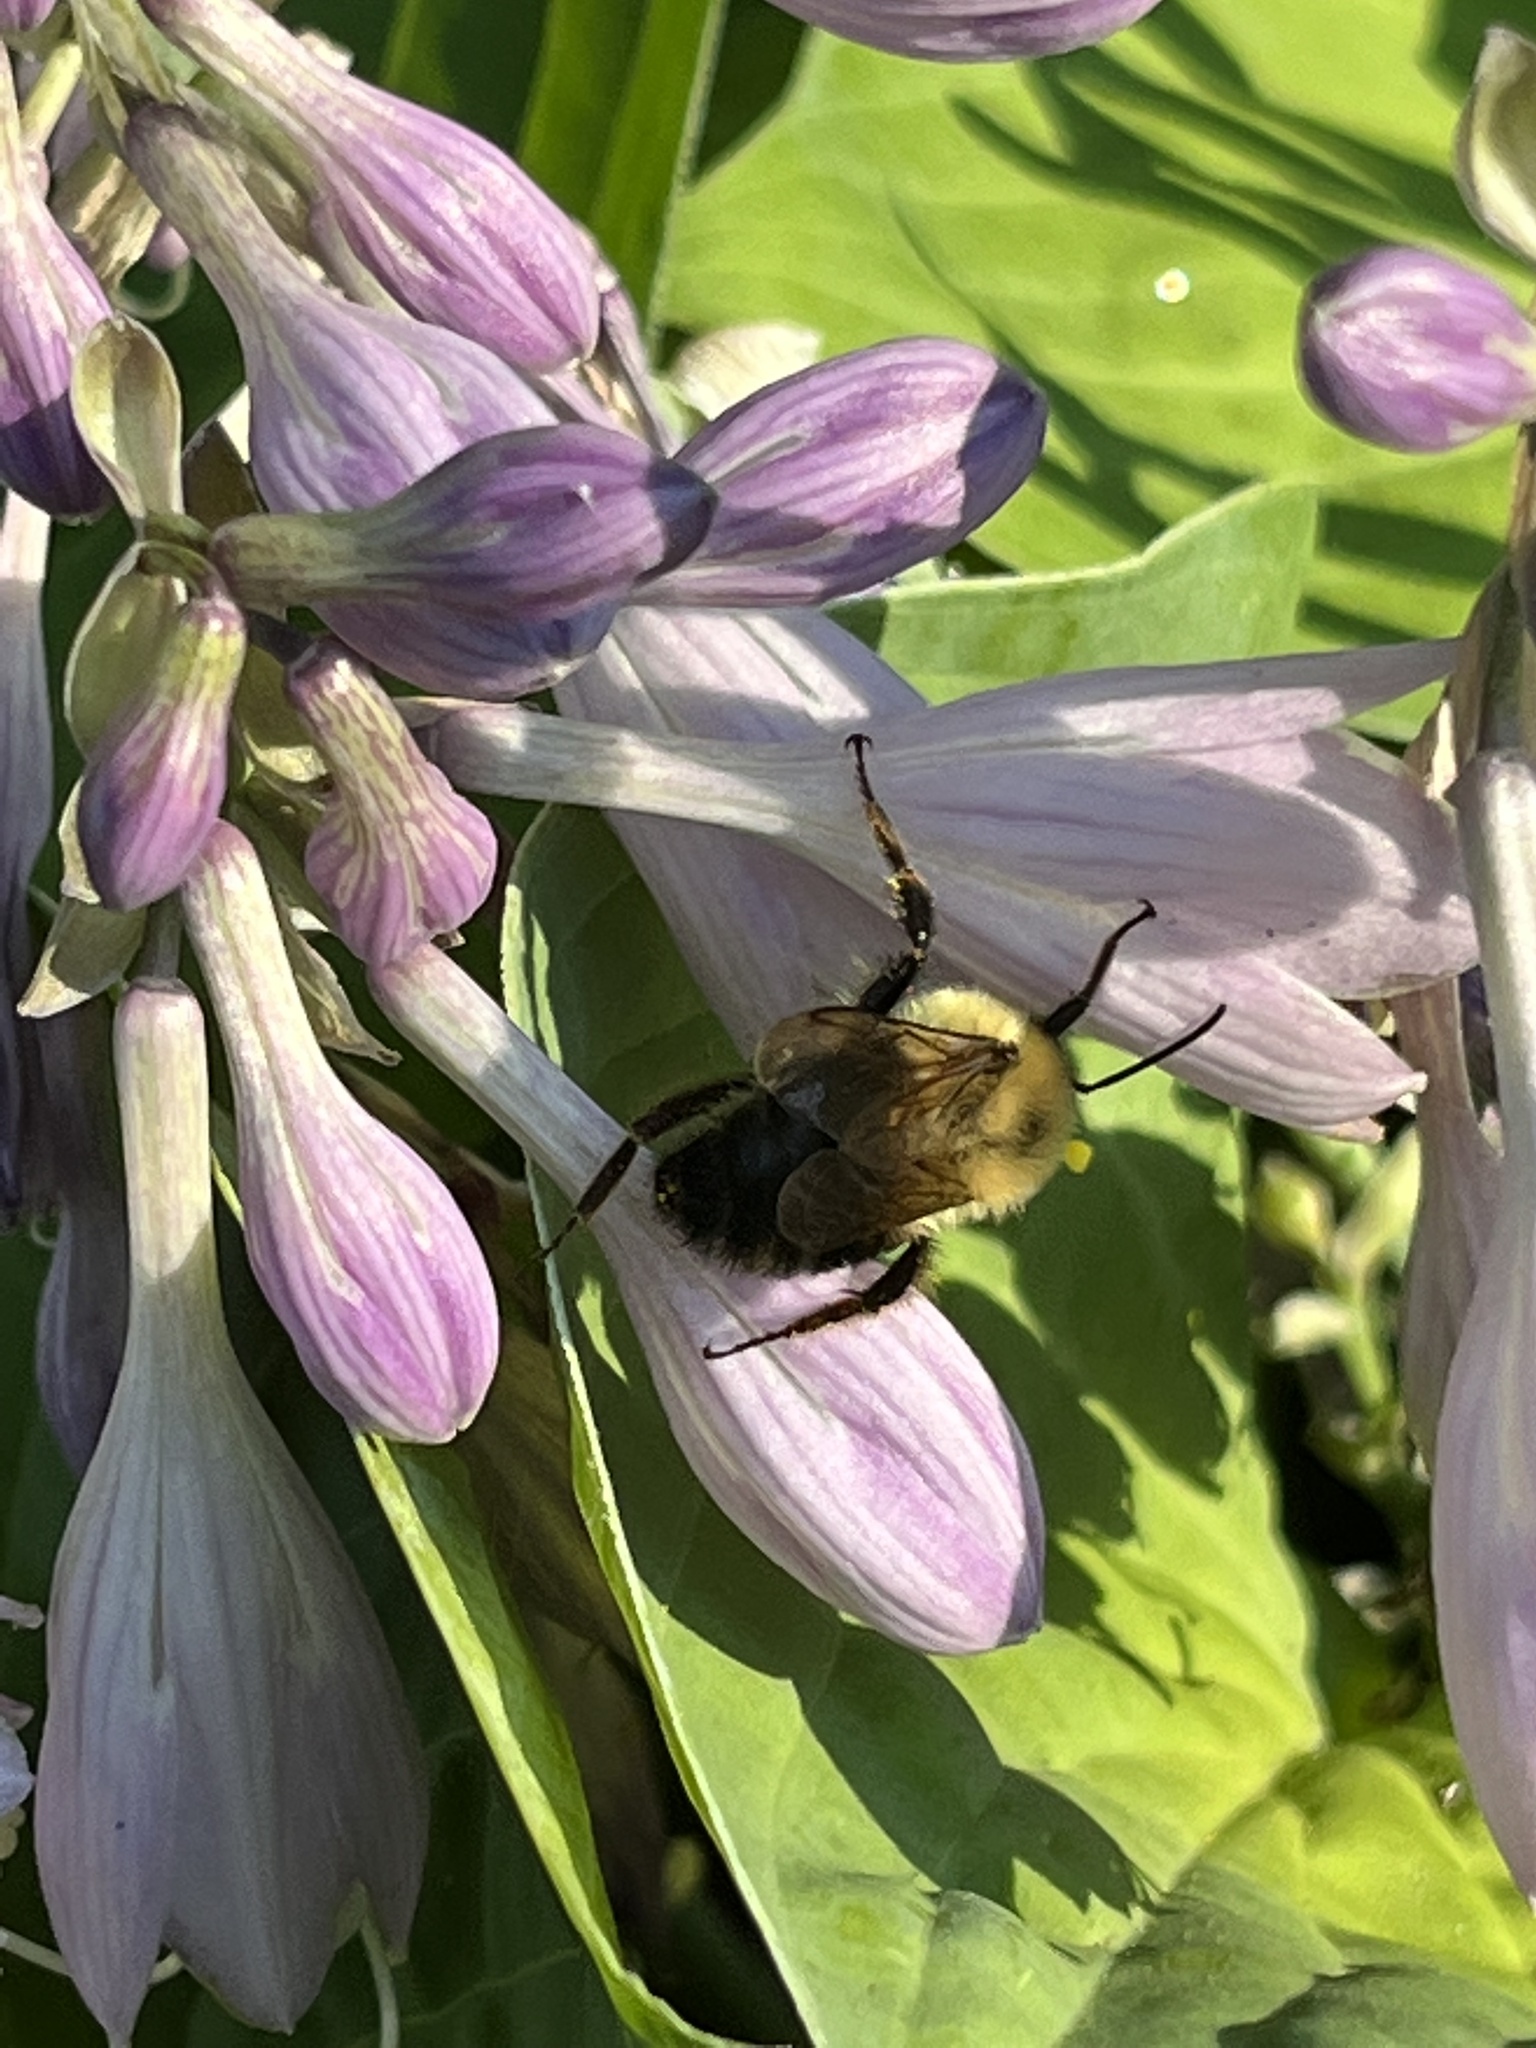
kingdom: Animalia
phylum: Arthropoda
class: Insecta
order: Hymenoptera
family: Apidae
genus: Bombus
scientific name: Bombus bimaculatus
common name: Two-spotted bumble bee
